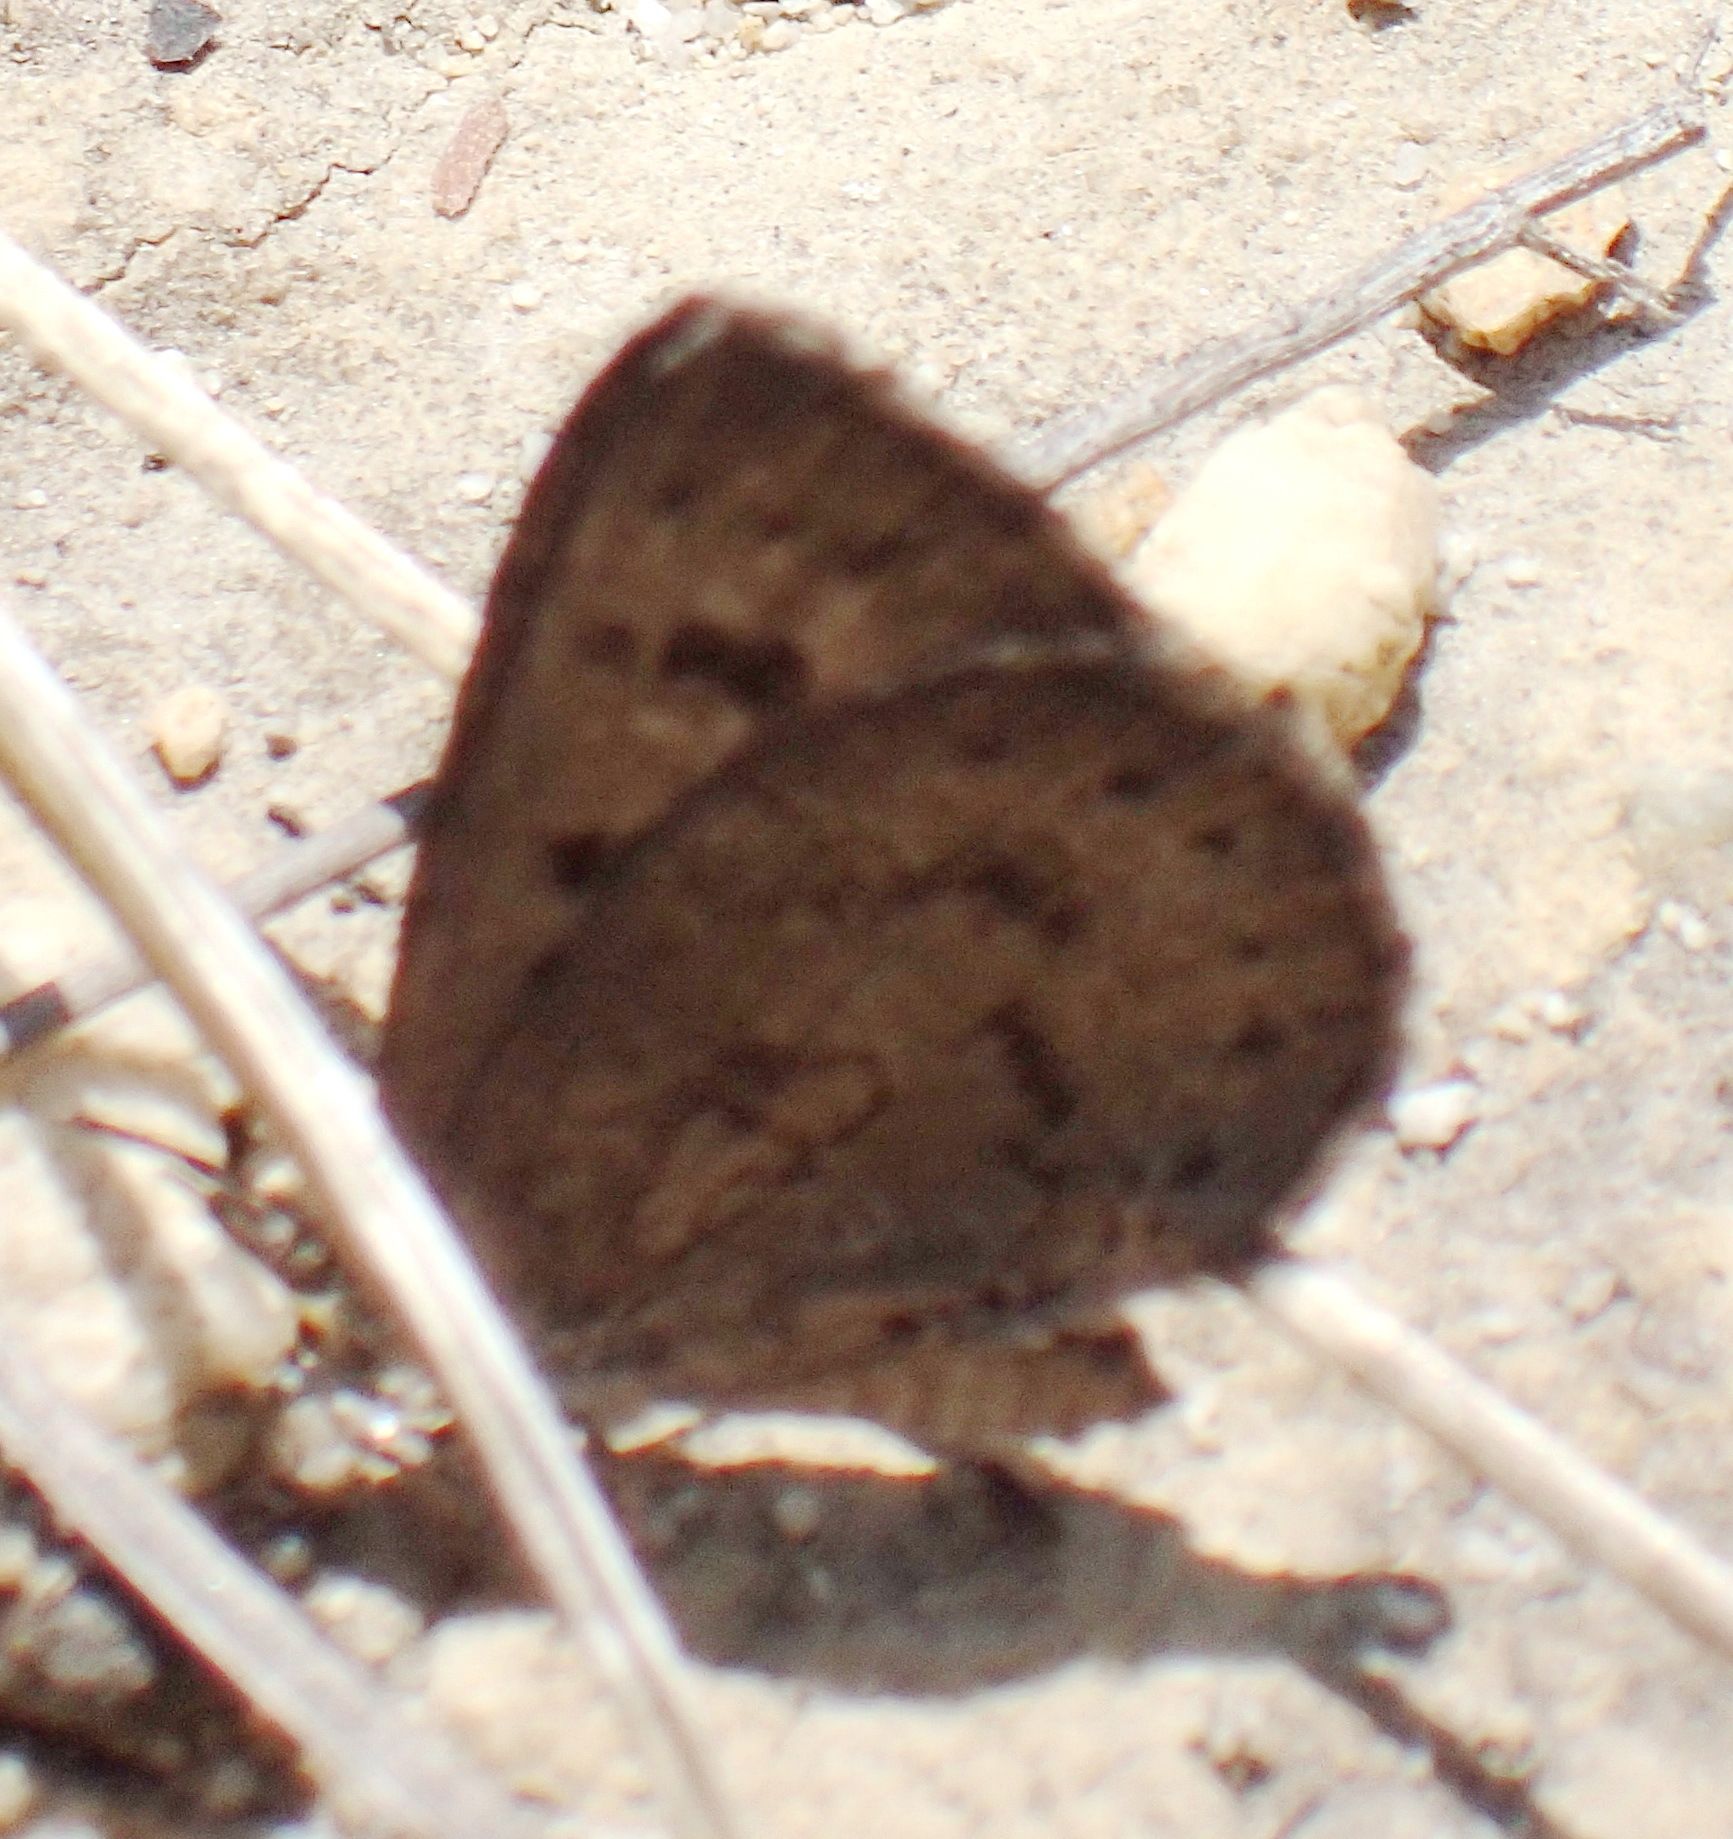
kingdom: Animalia
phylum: Arthropoda
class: Insecta
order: Lepidoptera
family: Lycaenidae
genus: Thestor
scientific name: Thestor murrayi
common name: Murray's skolly
